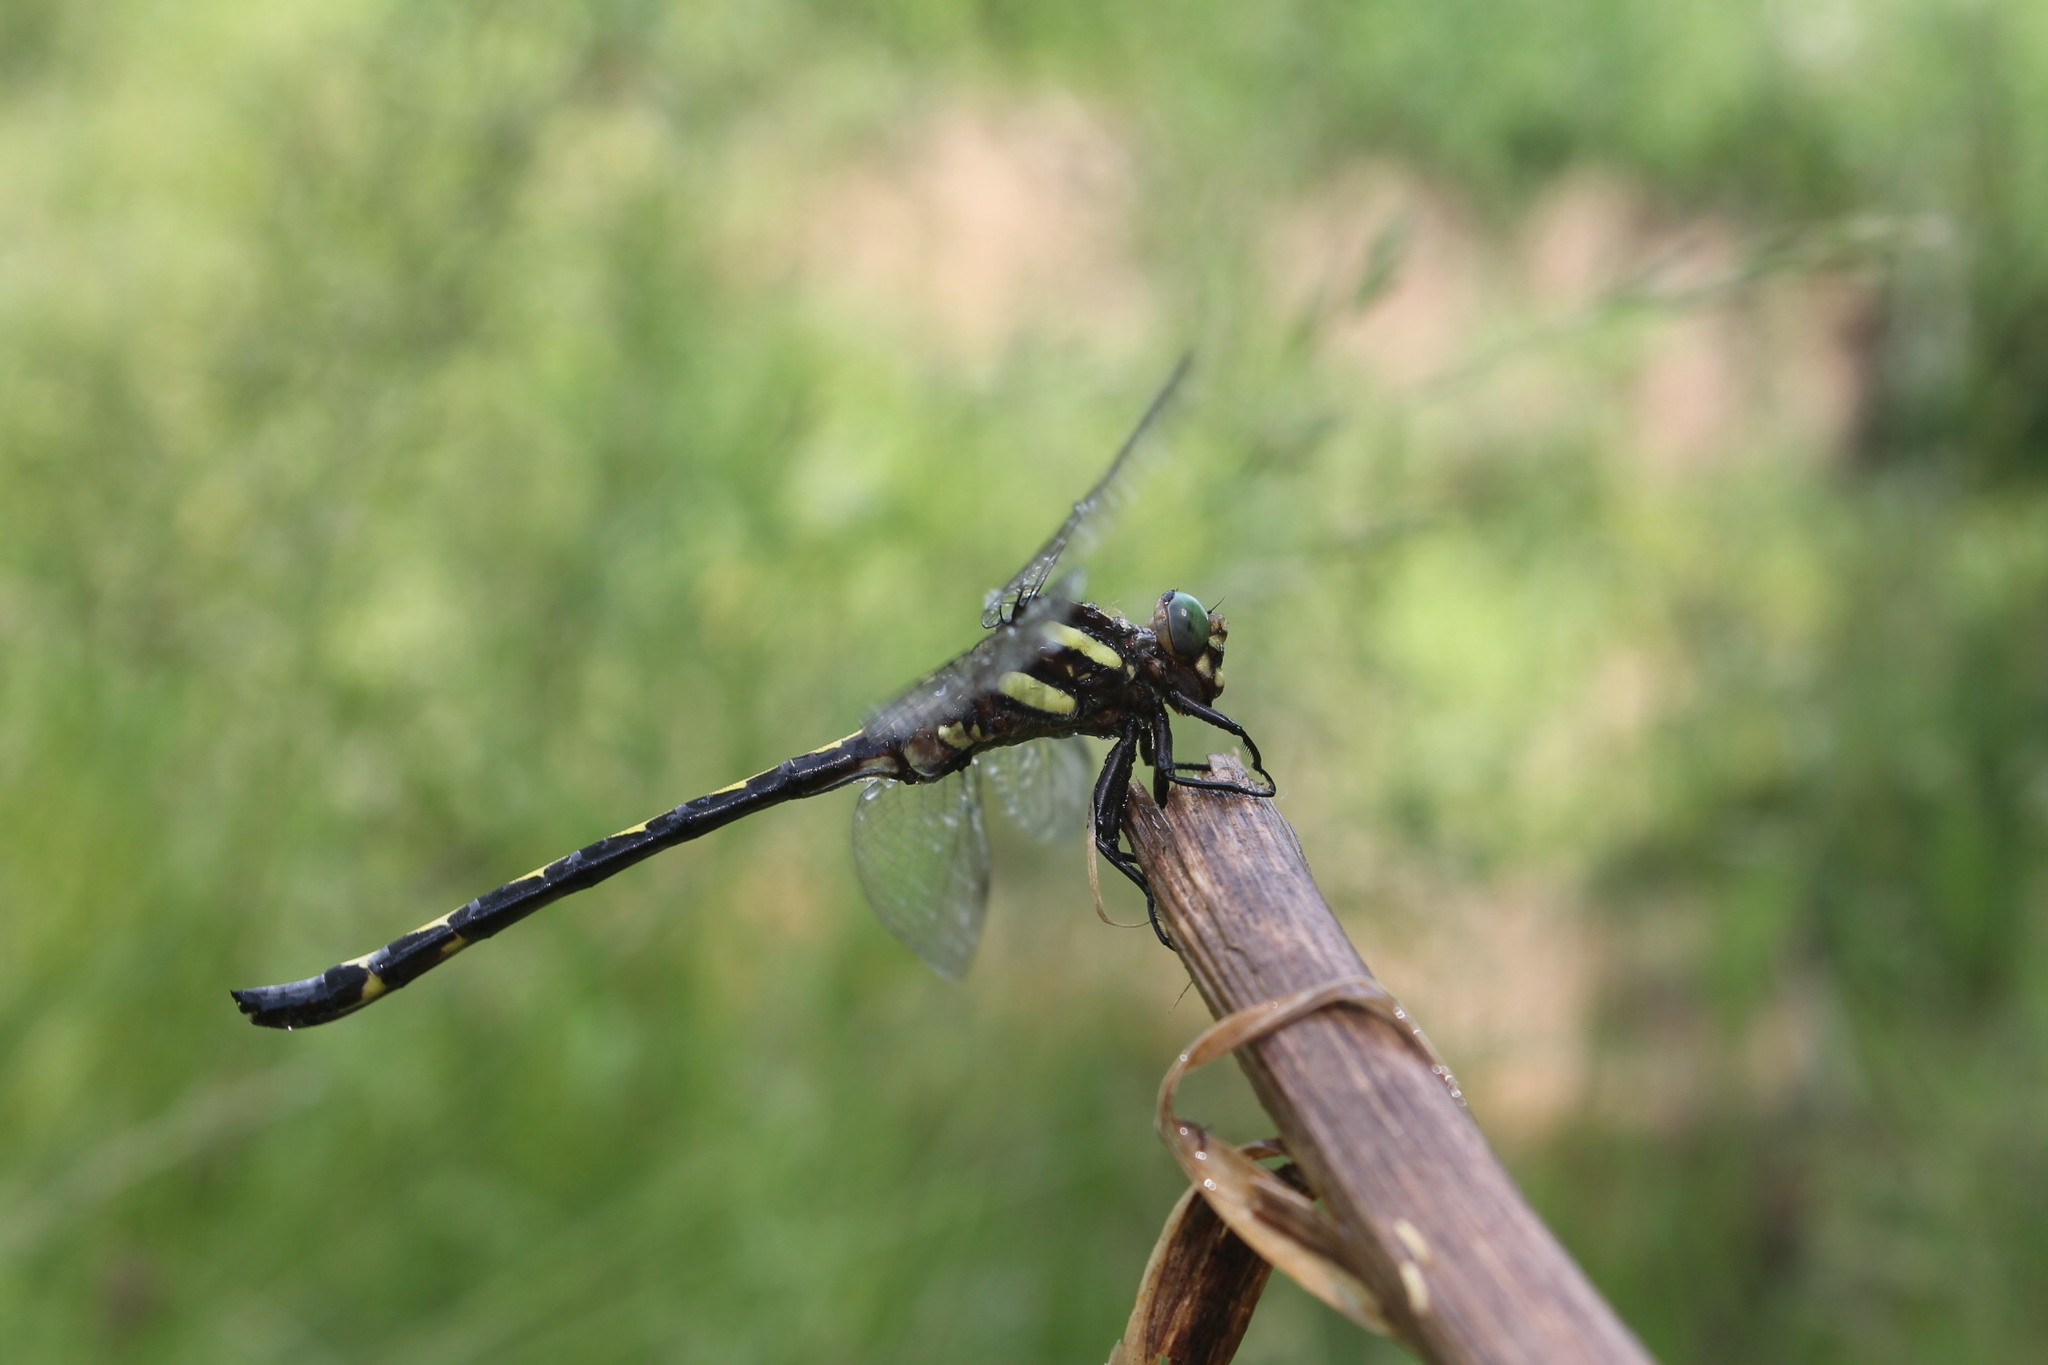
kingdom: Animalia
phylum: Arthropoda
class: Insecta
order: Odonata
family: Cordulegastridae
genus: Cordulegaster
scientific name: Cordulegaster obliqua
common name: Arrowhead spiketail
